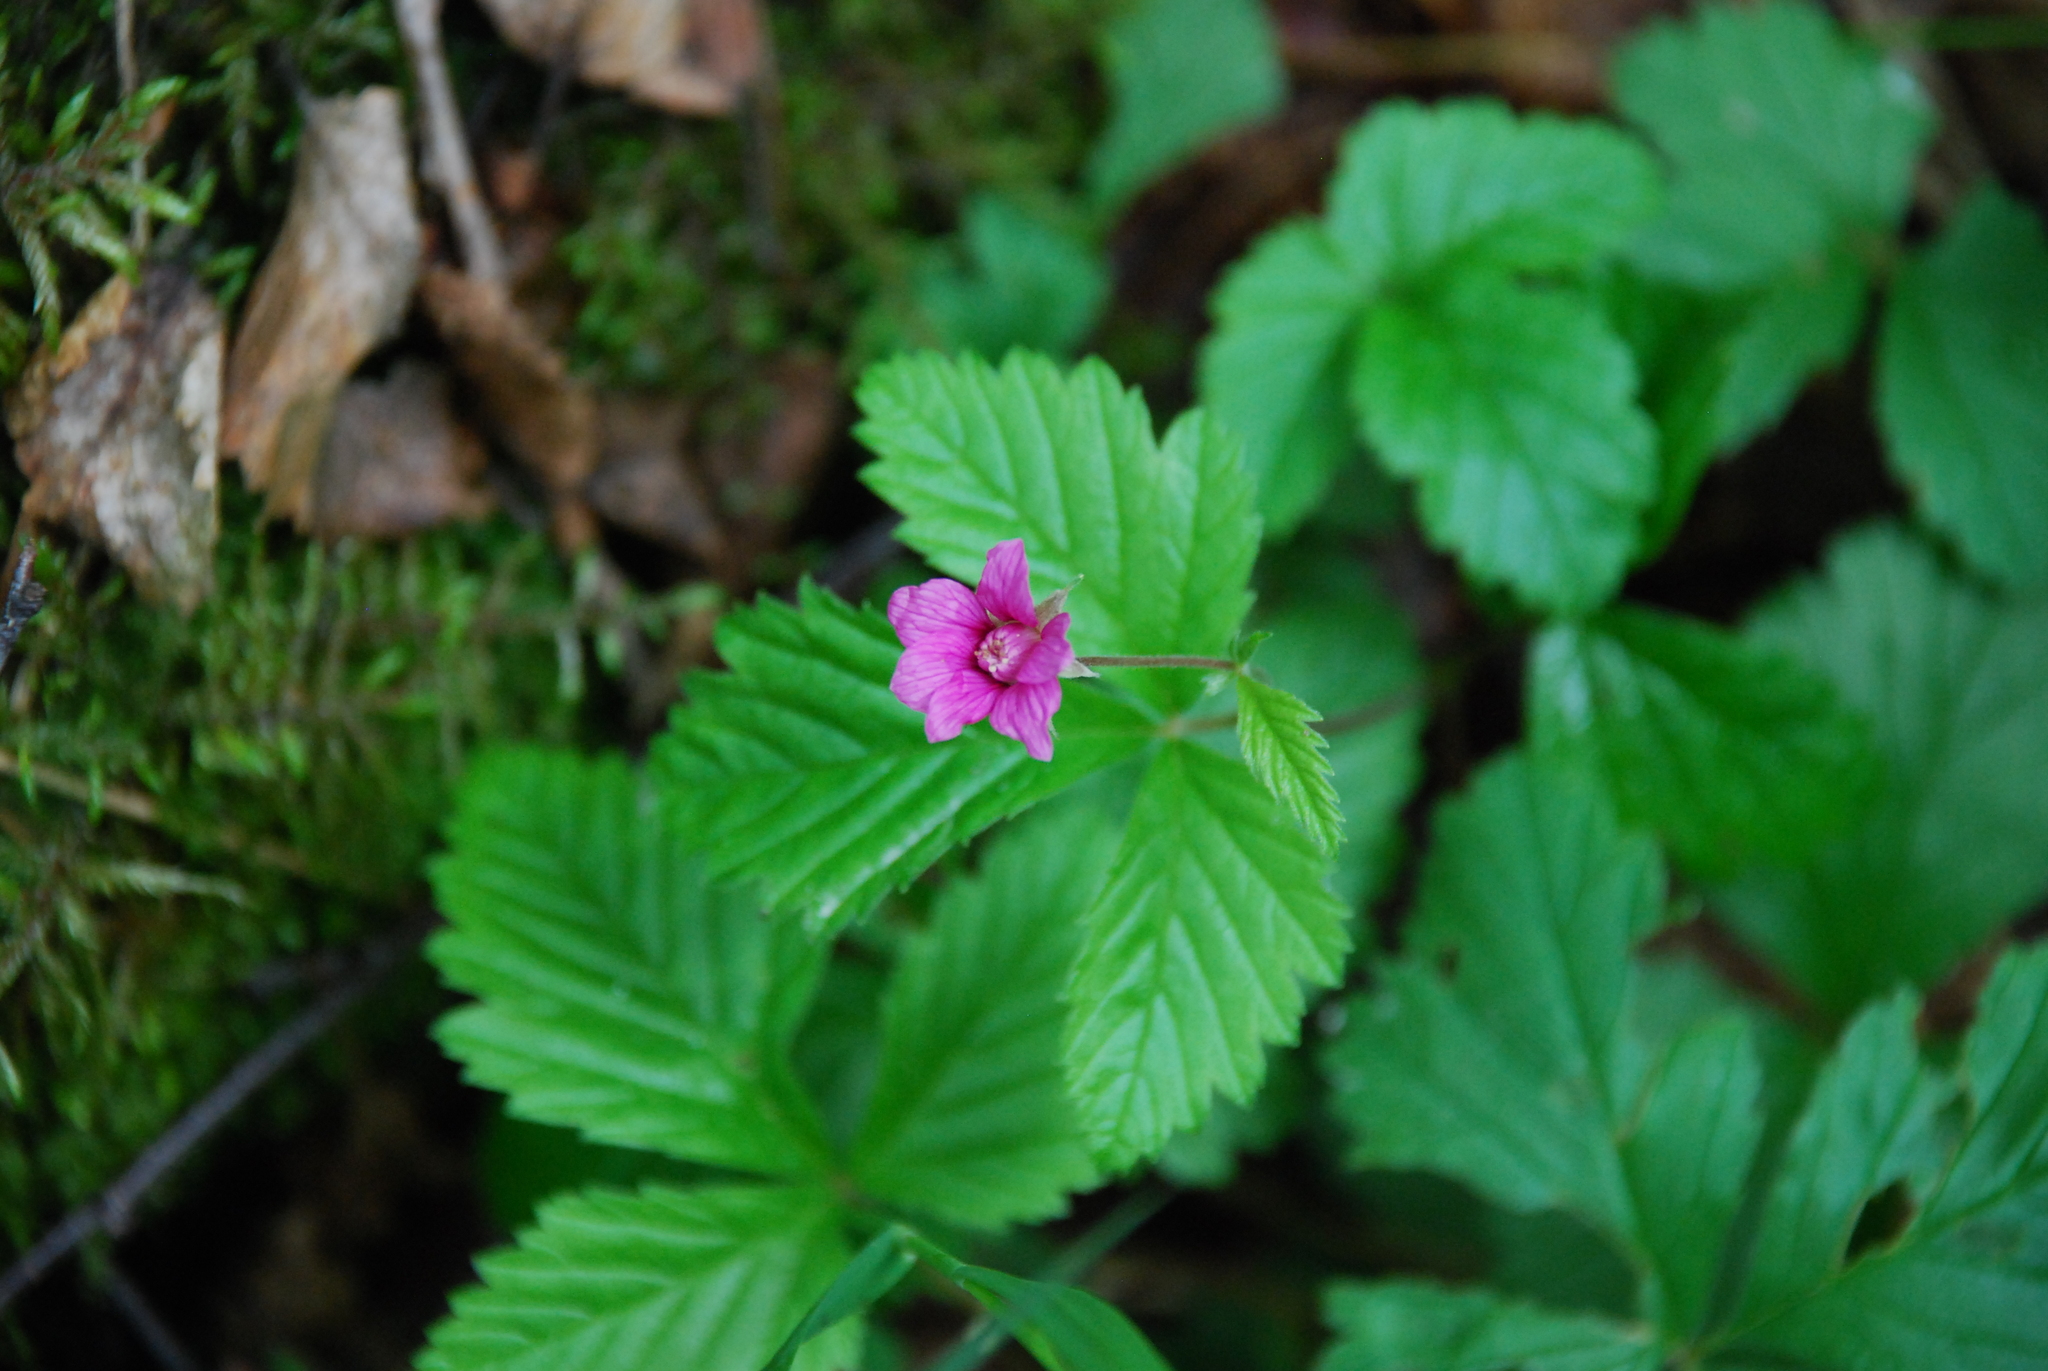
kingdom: Plantae
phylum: Tracheophyta
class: Magnoliopsida
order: Rosales
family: Rosaceae
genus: Rubus
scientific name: Rubus arcticus
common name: Arctic bramble
